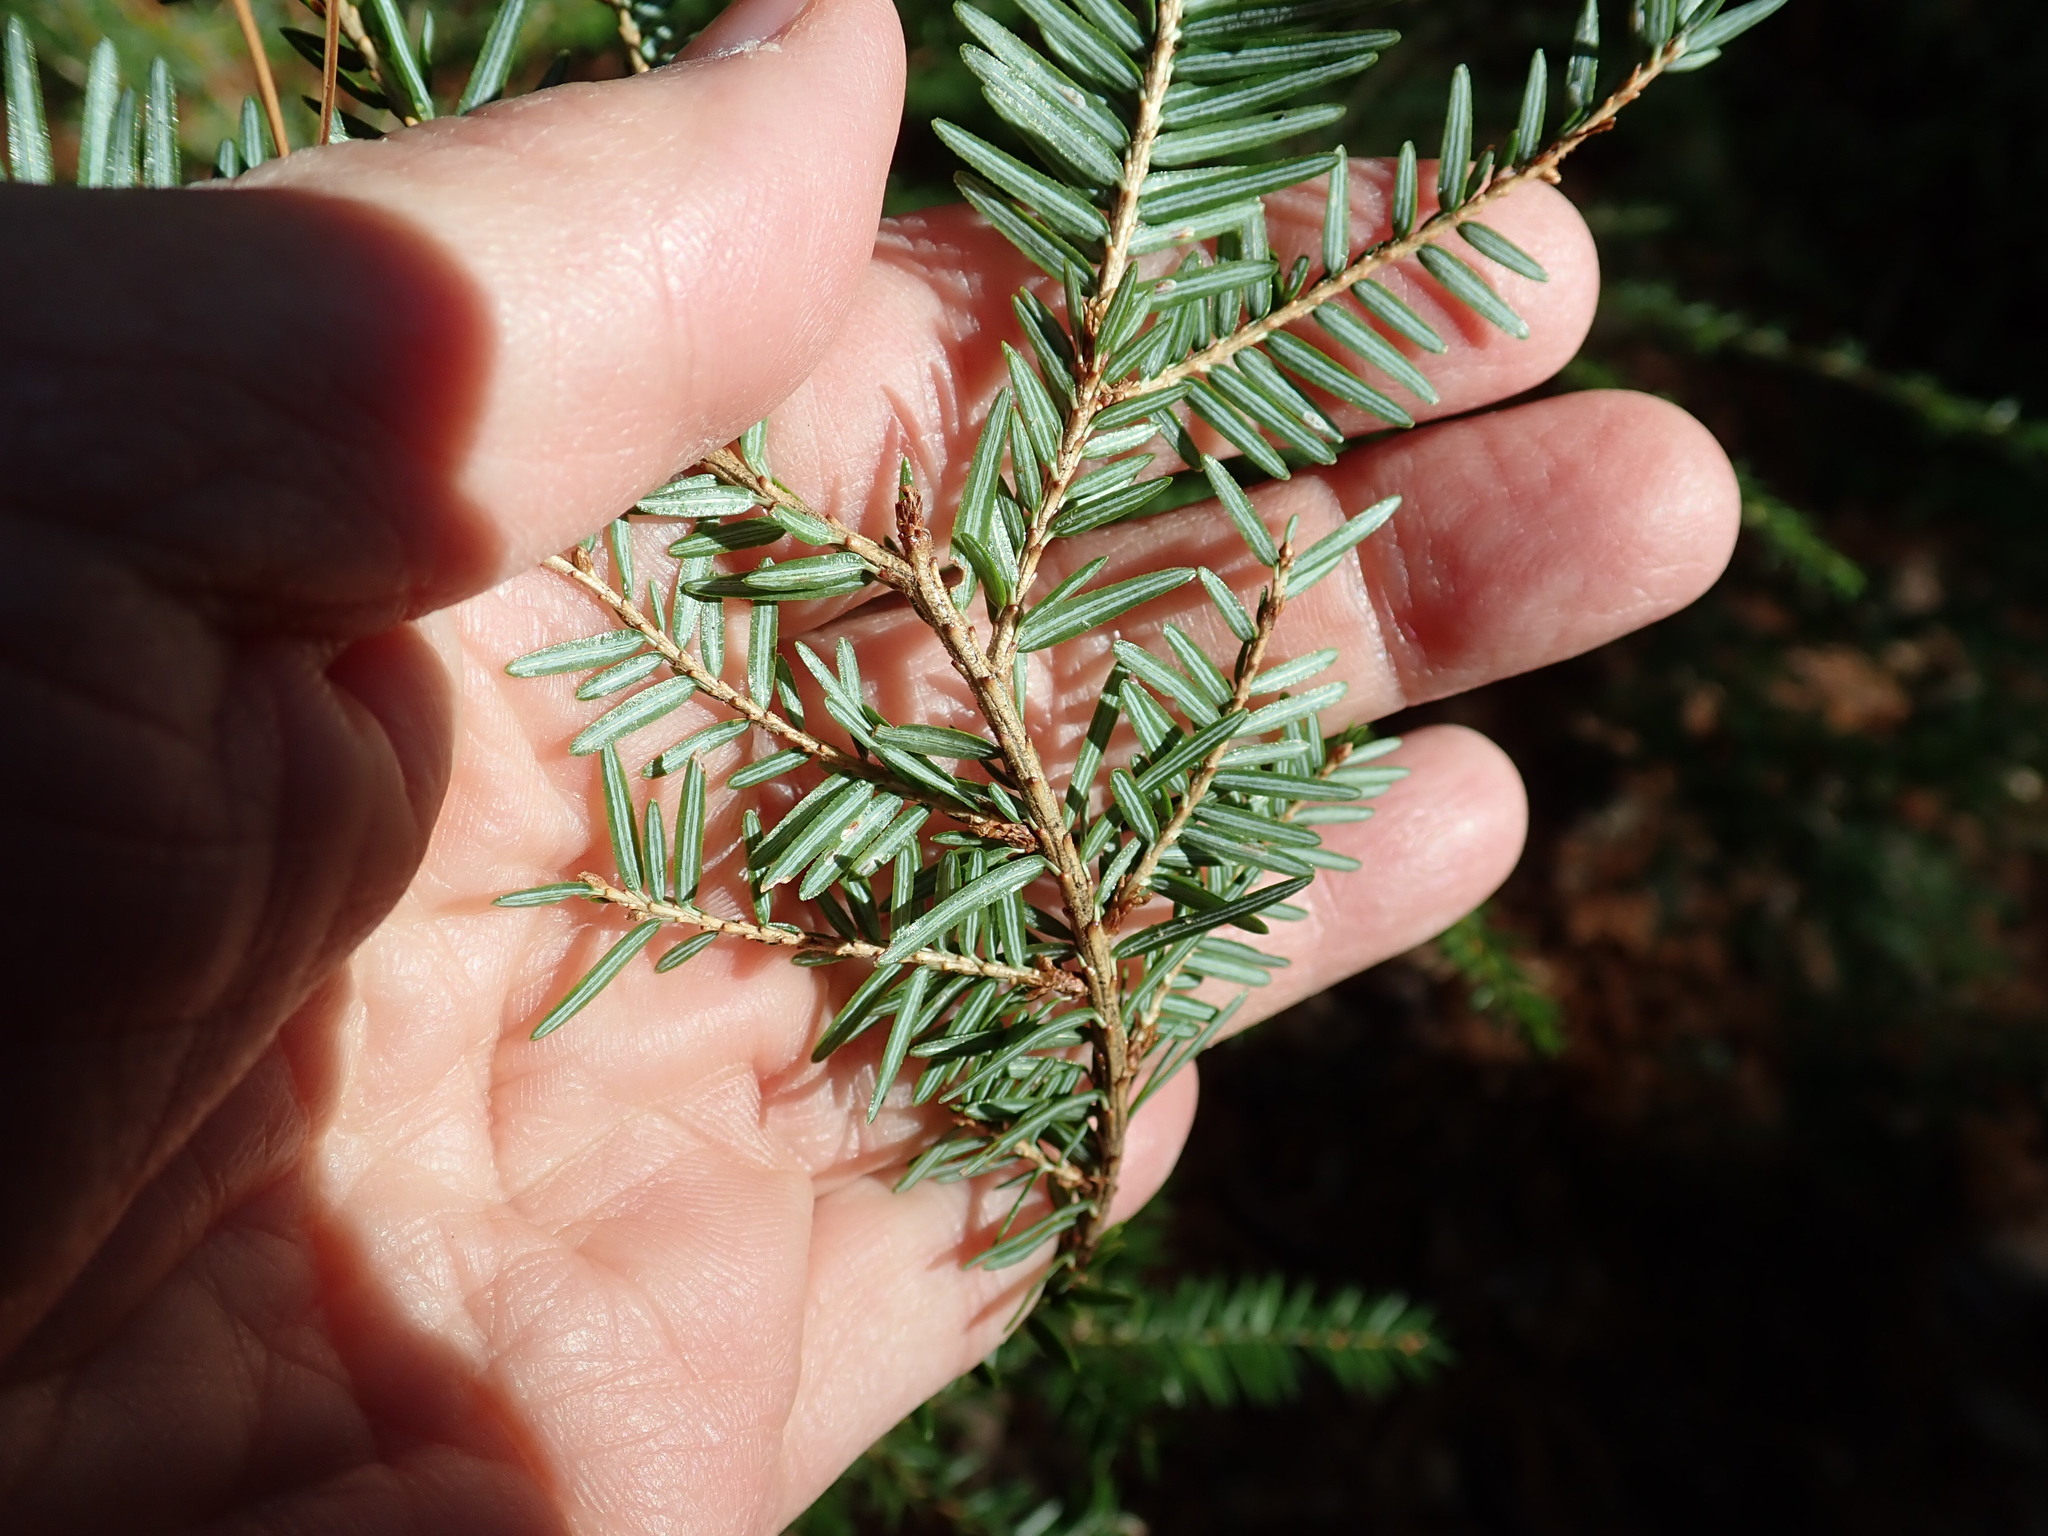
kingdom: Plantae
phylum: Tracheophyta
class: Pinopsida
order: Pinales
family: Pinaceae
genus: Tsuga
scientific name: Tsuga canadensis
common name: Eastern hemlock
